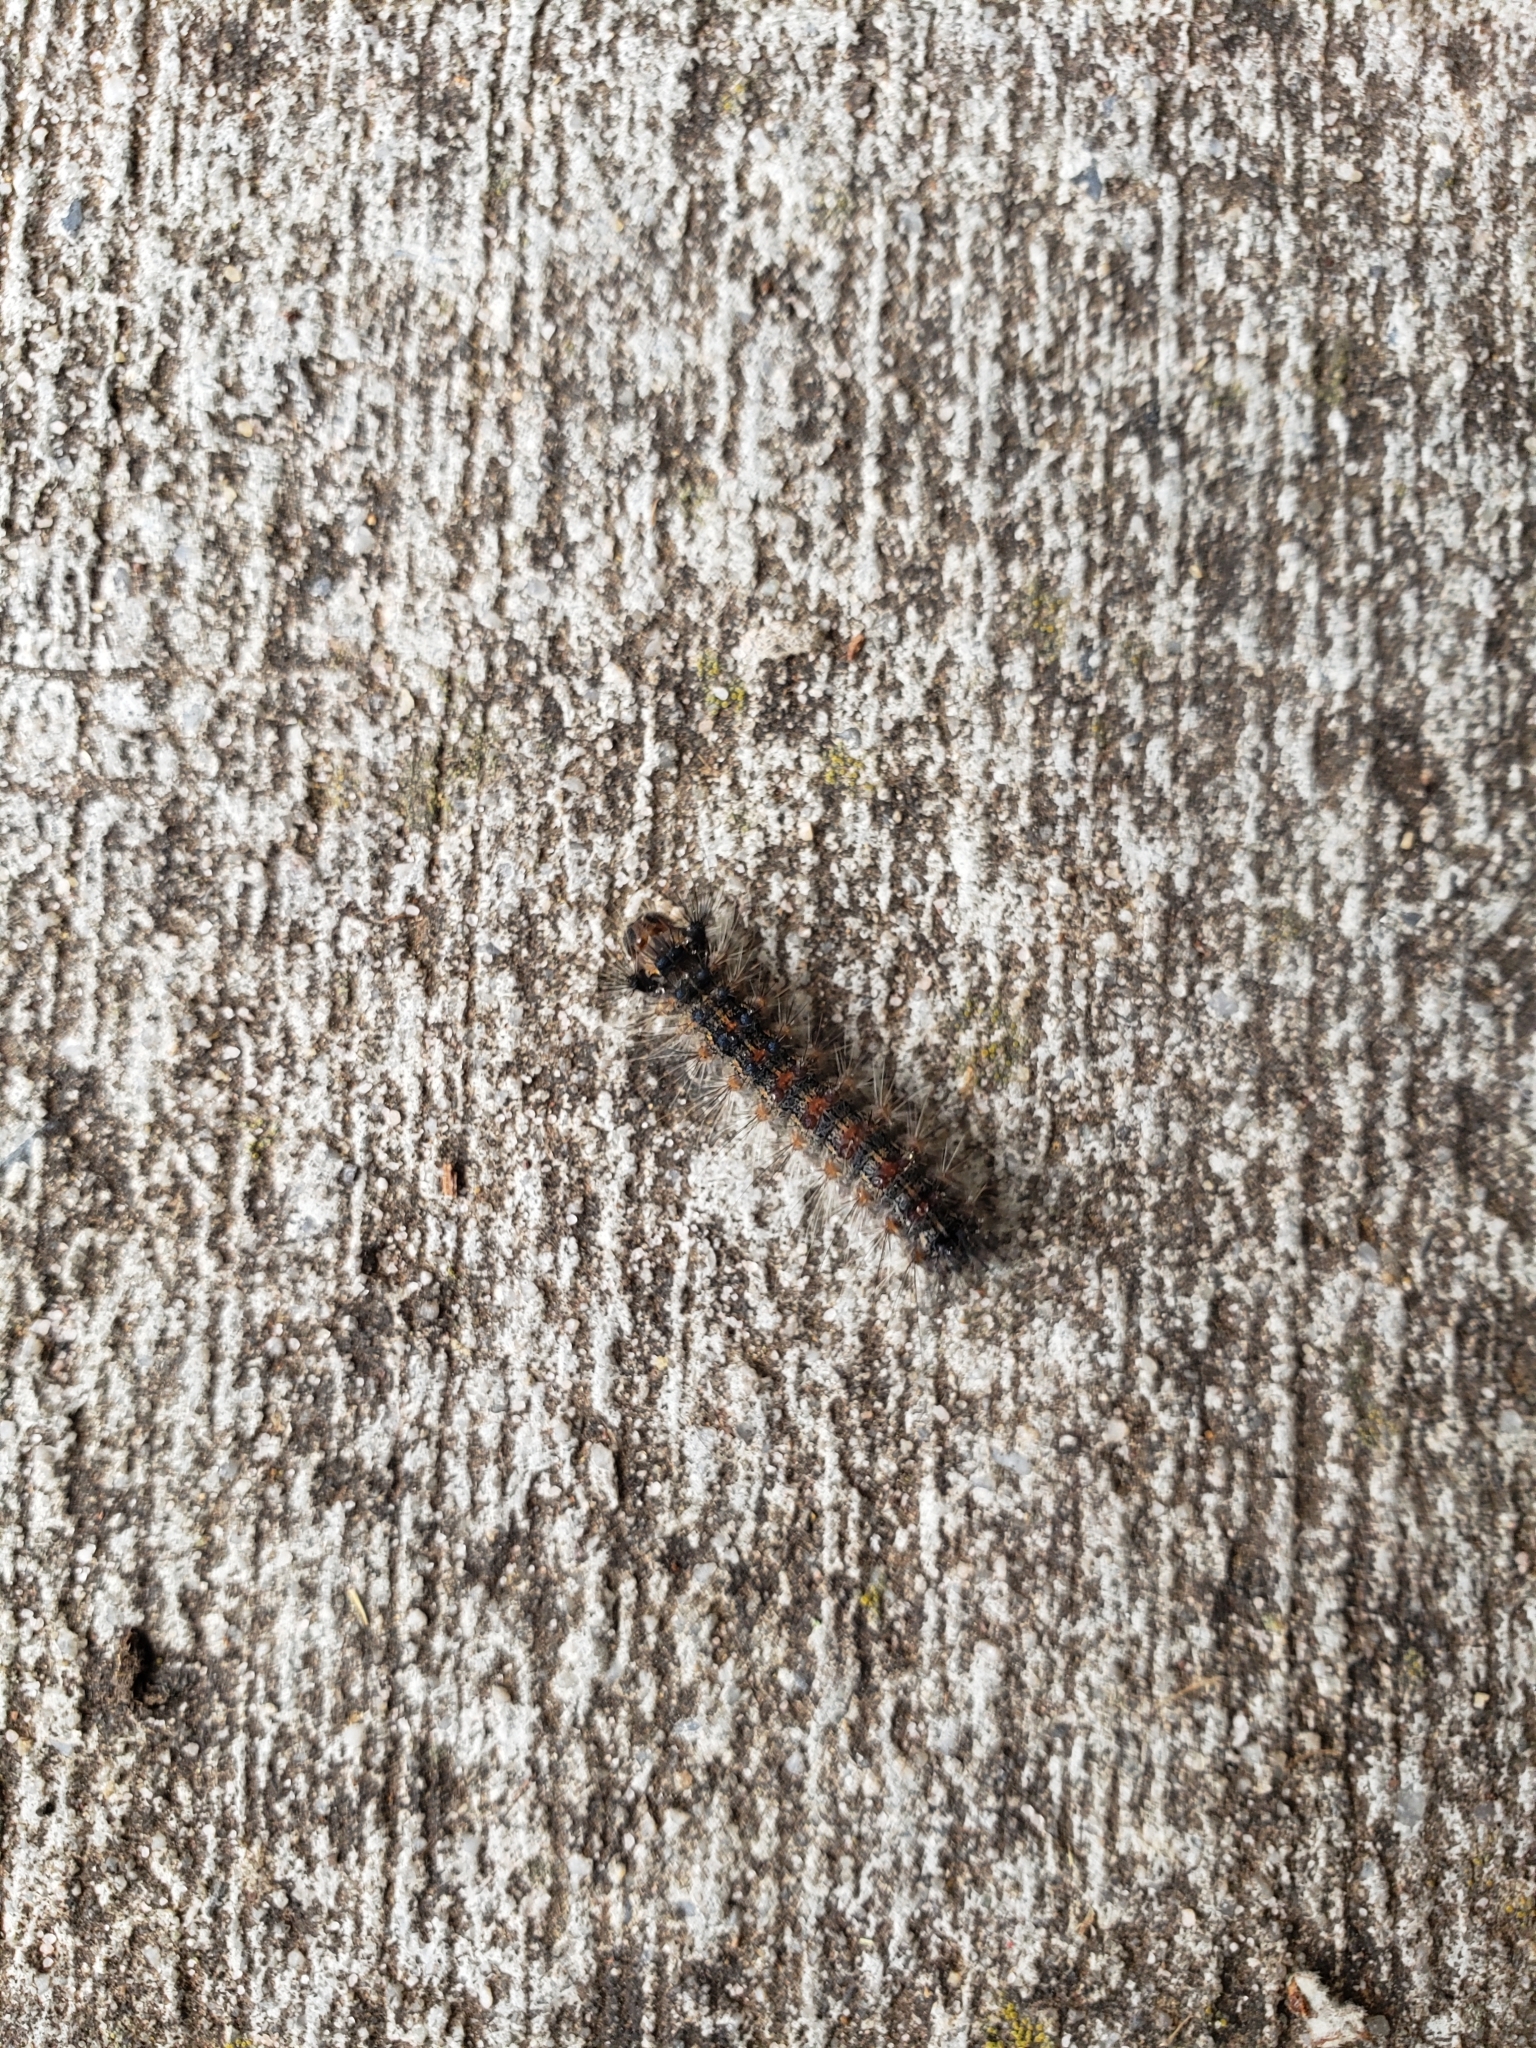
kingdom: Animalia
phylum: Arthropoda
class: Insecta
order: Lepidoptera
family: Erebidae
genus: Lymantria
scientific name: Lymantria dispar
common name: Gypsy moth
